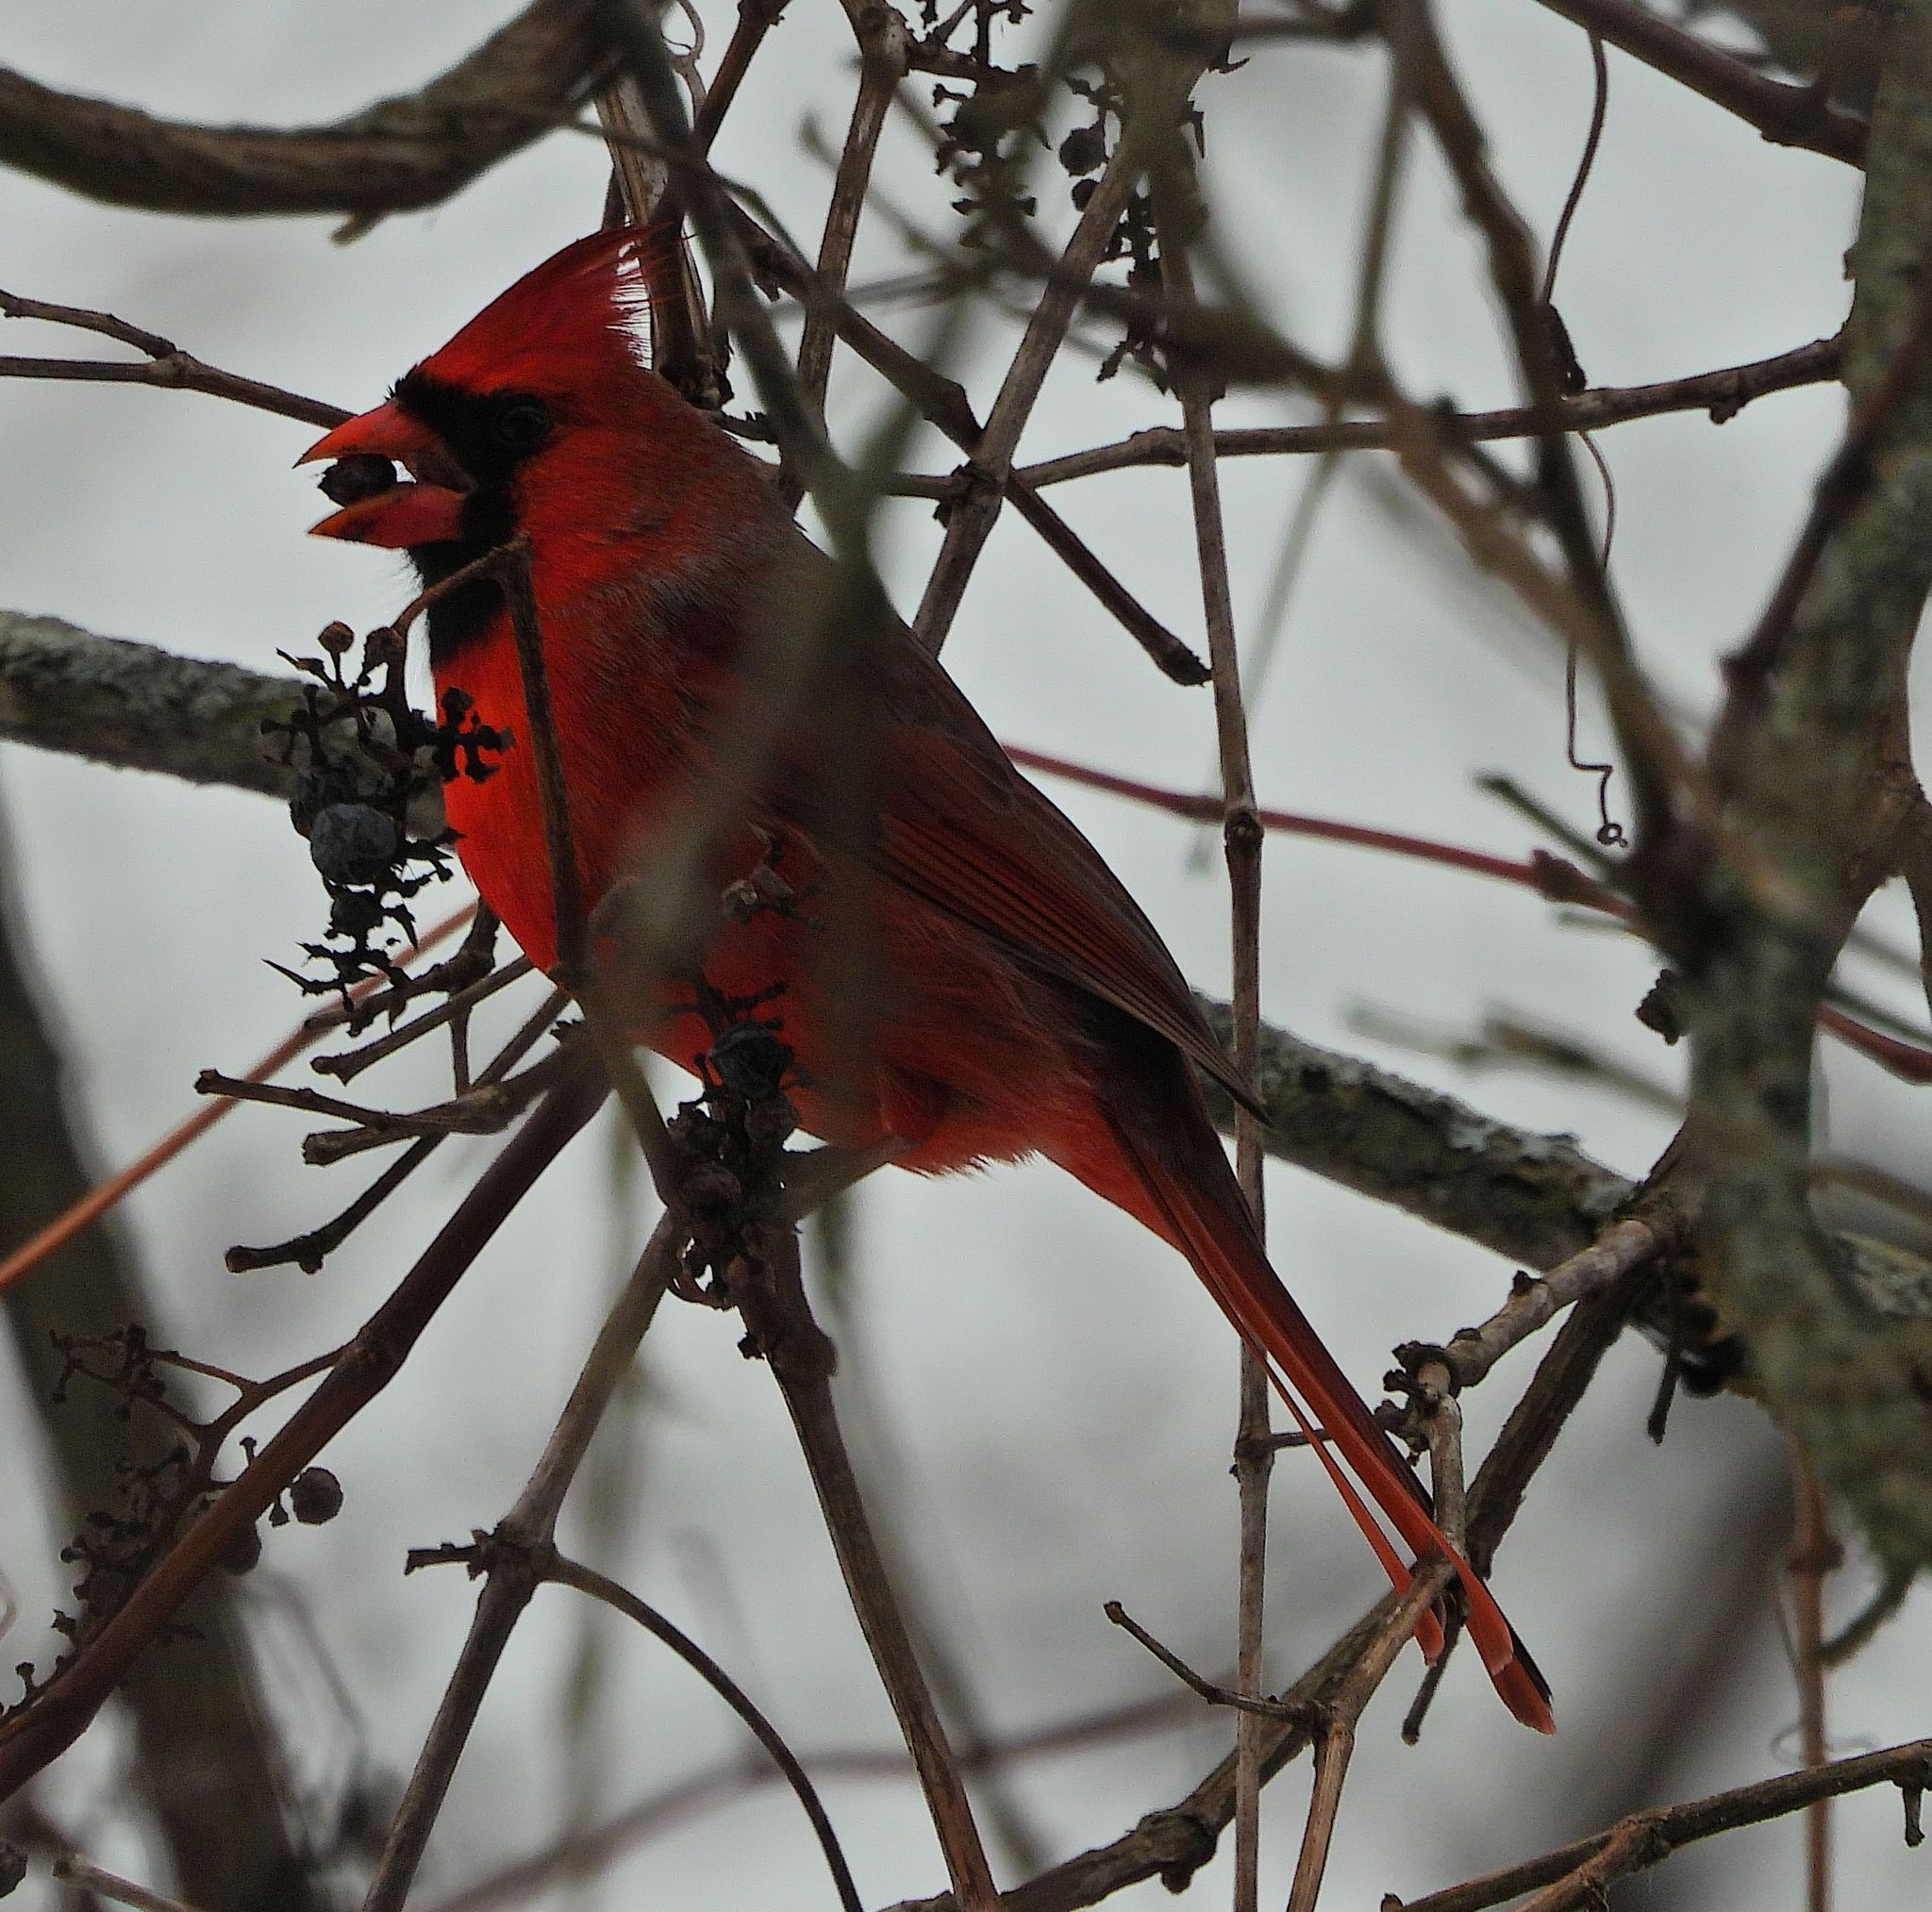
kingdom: Animalia
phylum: Chordata
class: Aves
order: Passeriformes
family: Cardinalidae
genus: Cardinalis
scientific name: Cardinalis cardinalis
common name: Northern cardinal
